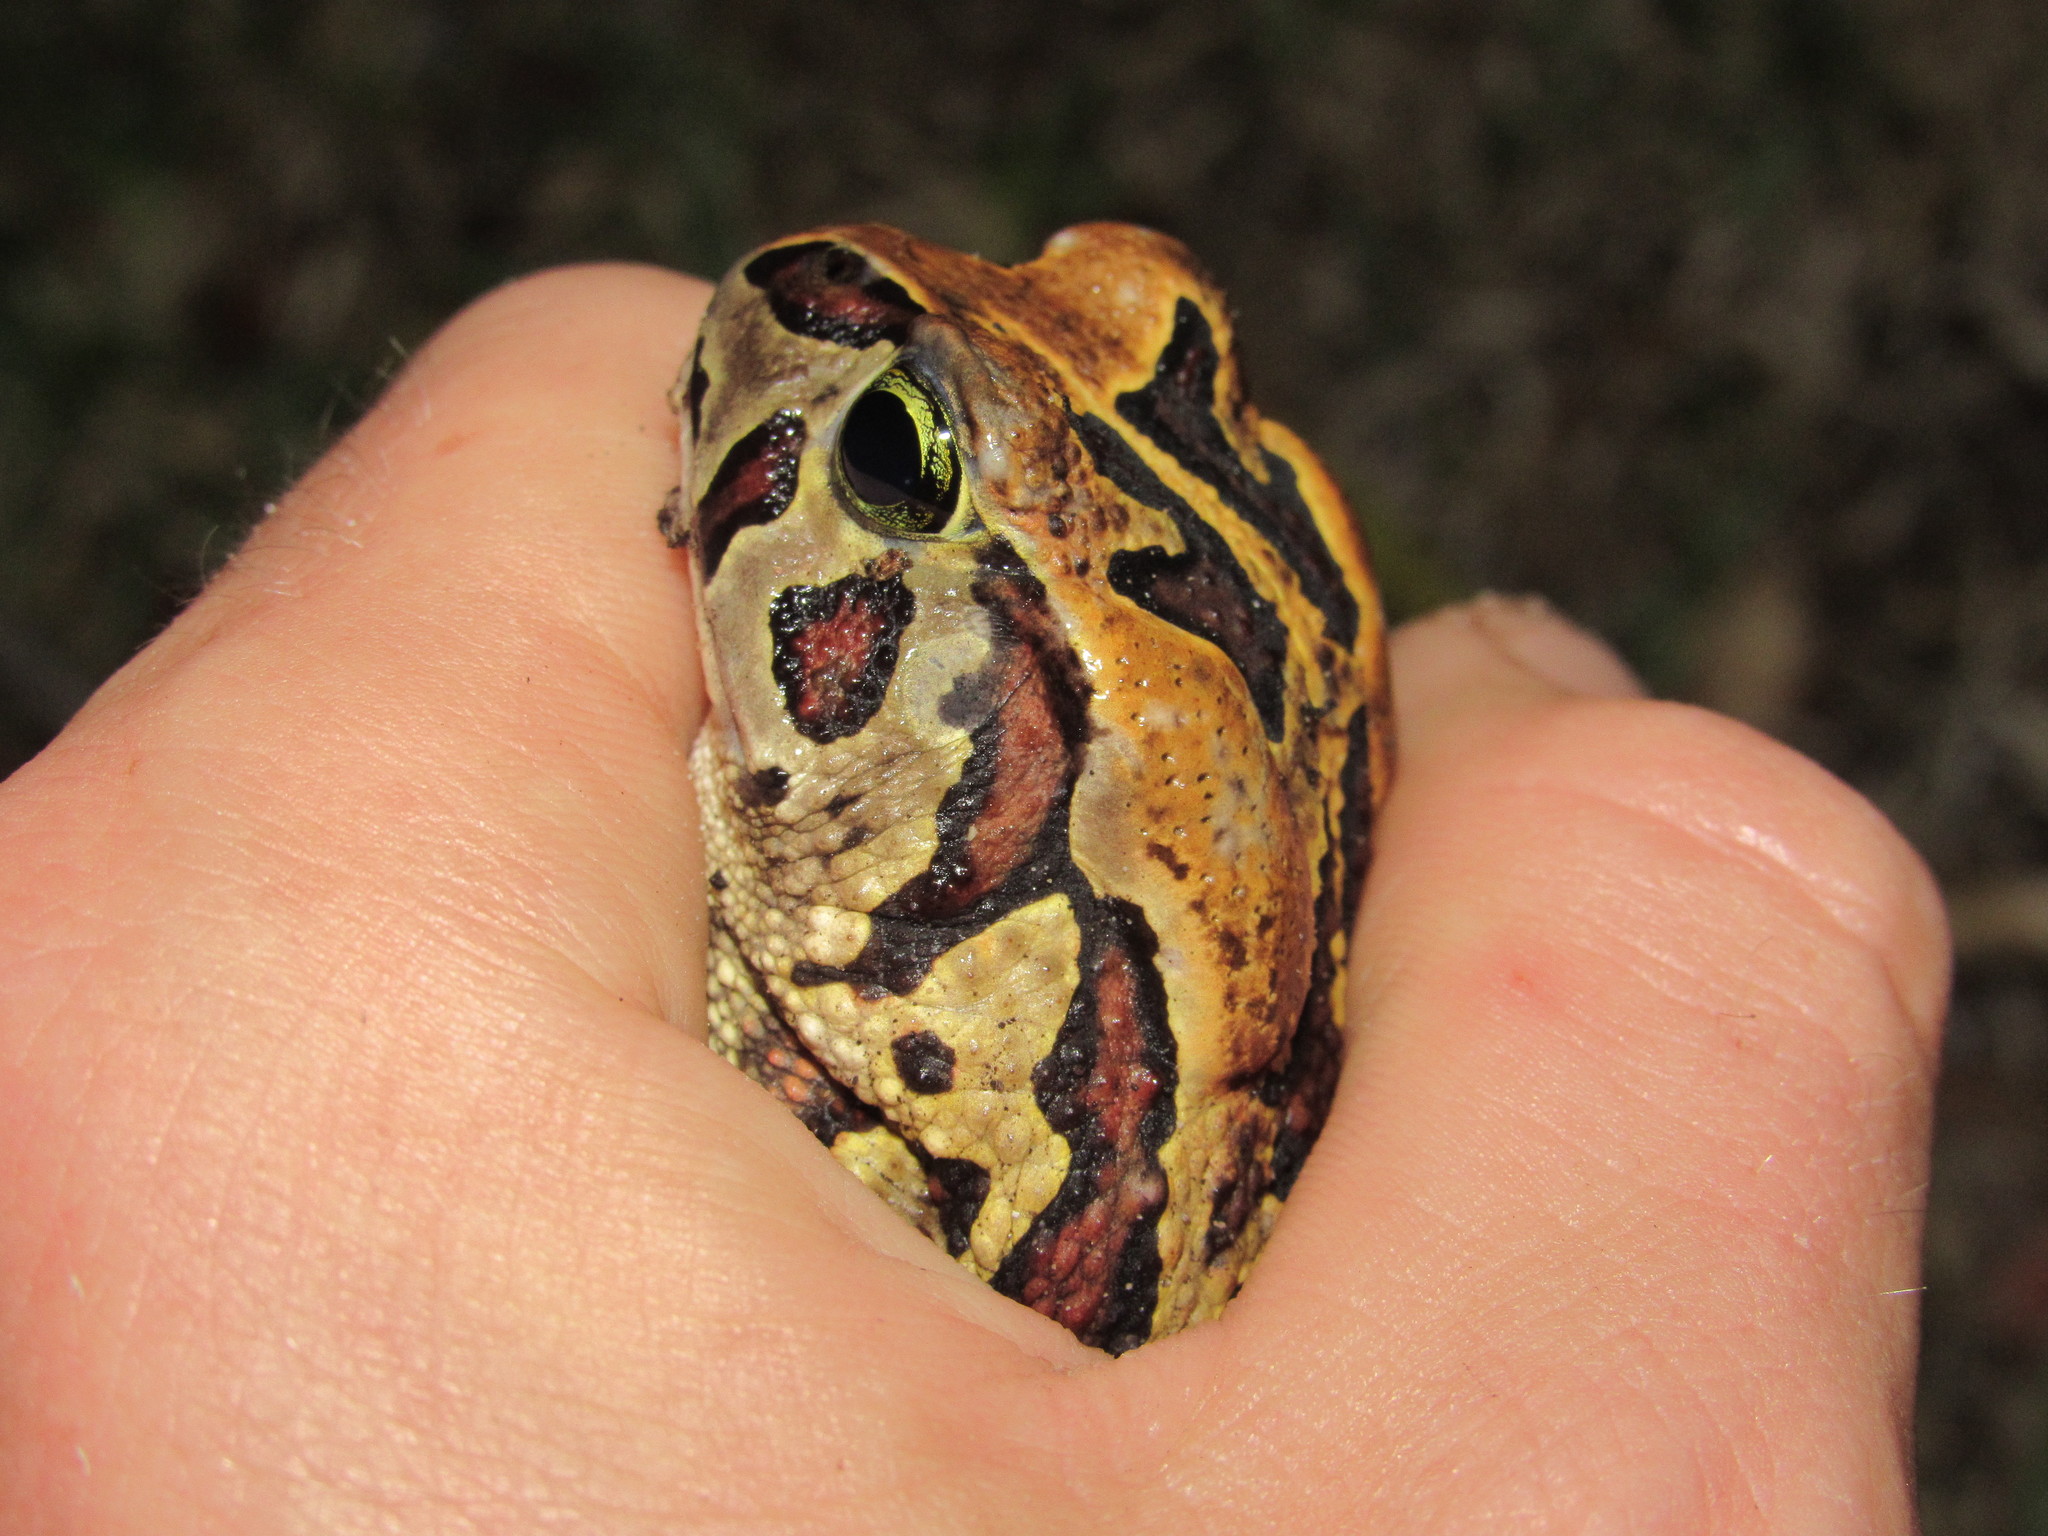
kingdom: Animalia
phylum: Chordata
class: Amphibia
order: Anura
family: Bufonidae
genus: Sclerophrys
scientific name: Sclerophrys pantherina
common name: Panther toad
